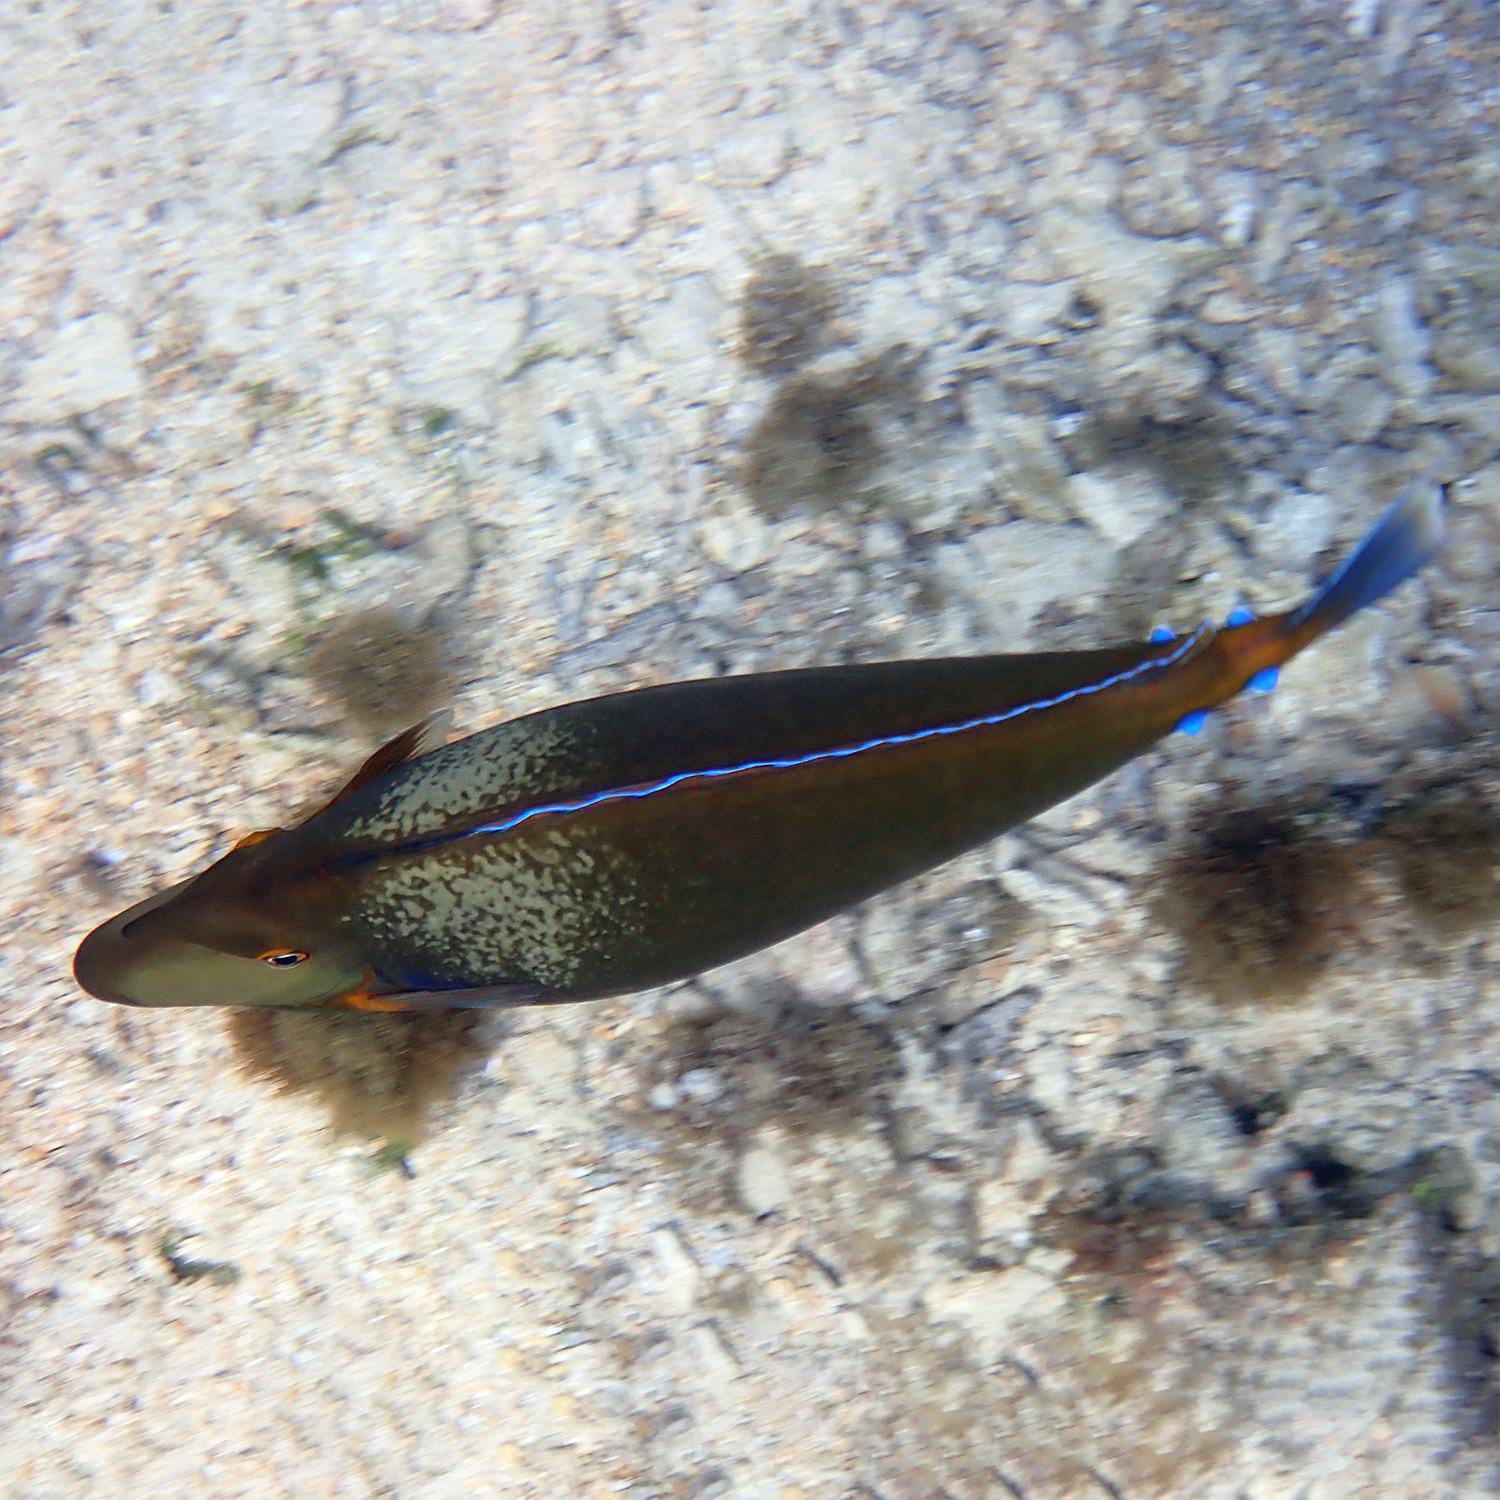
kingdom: Animalia
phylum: Chordata
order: Perciformes
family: Acanthuridae
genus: Naso
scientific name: Naso unicornis
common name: Bluespine unicornfish
